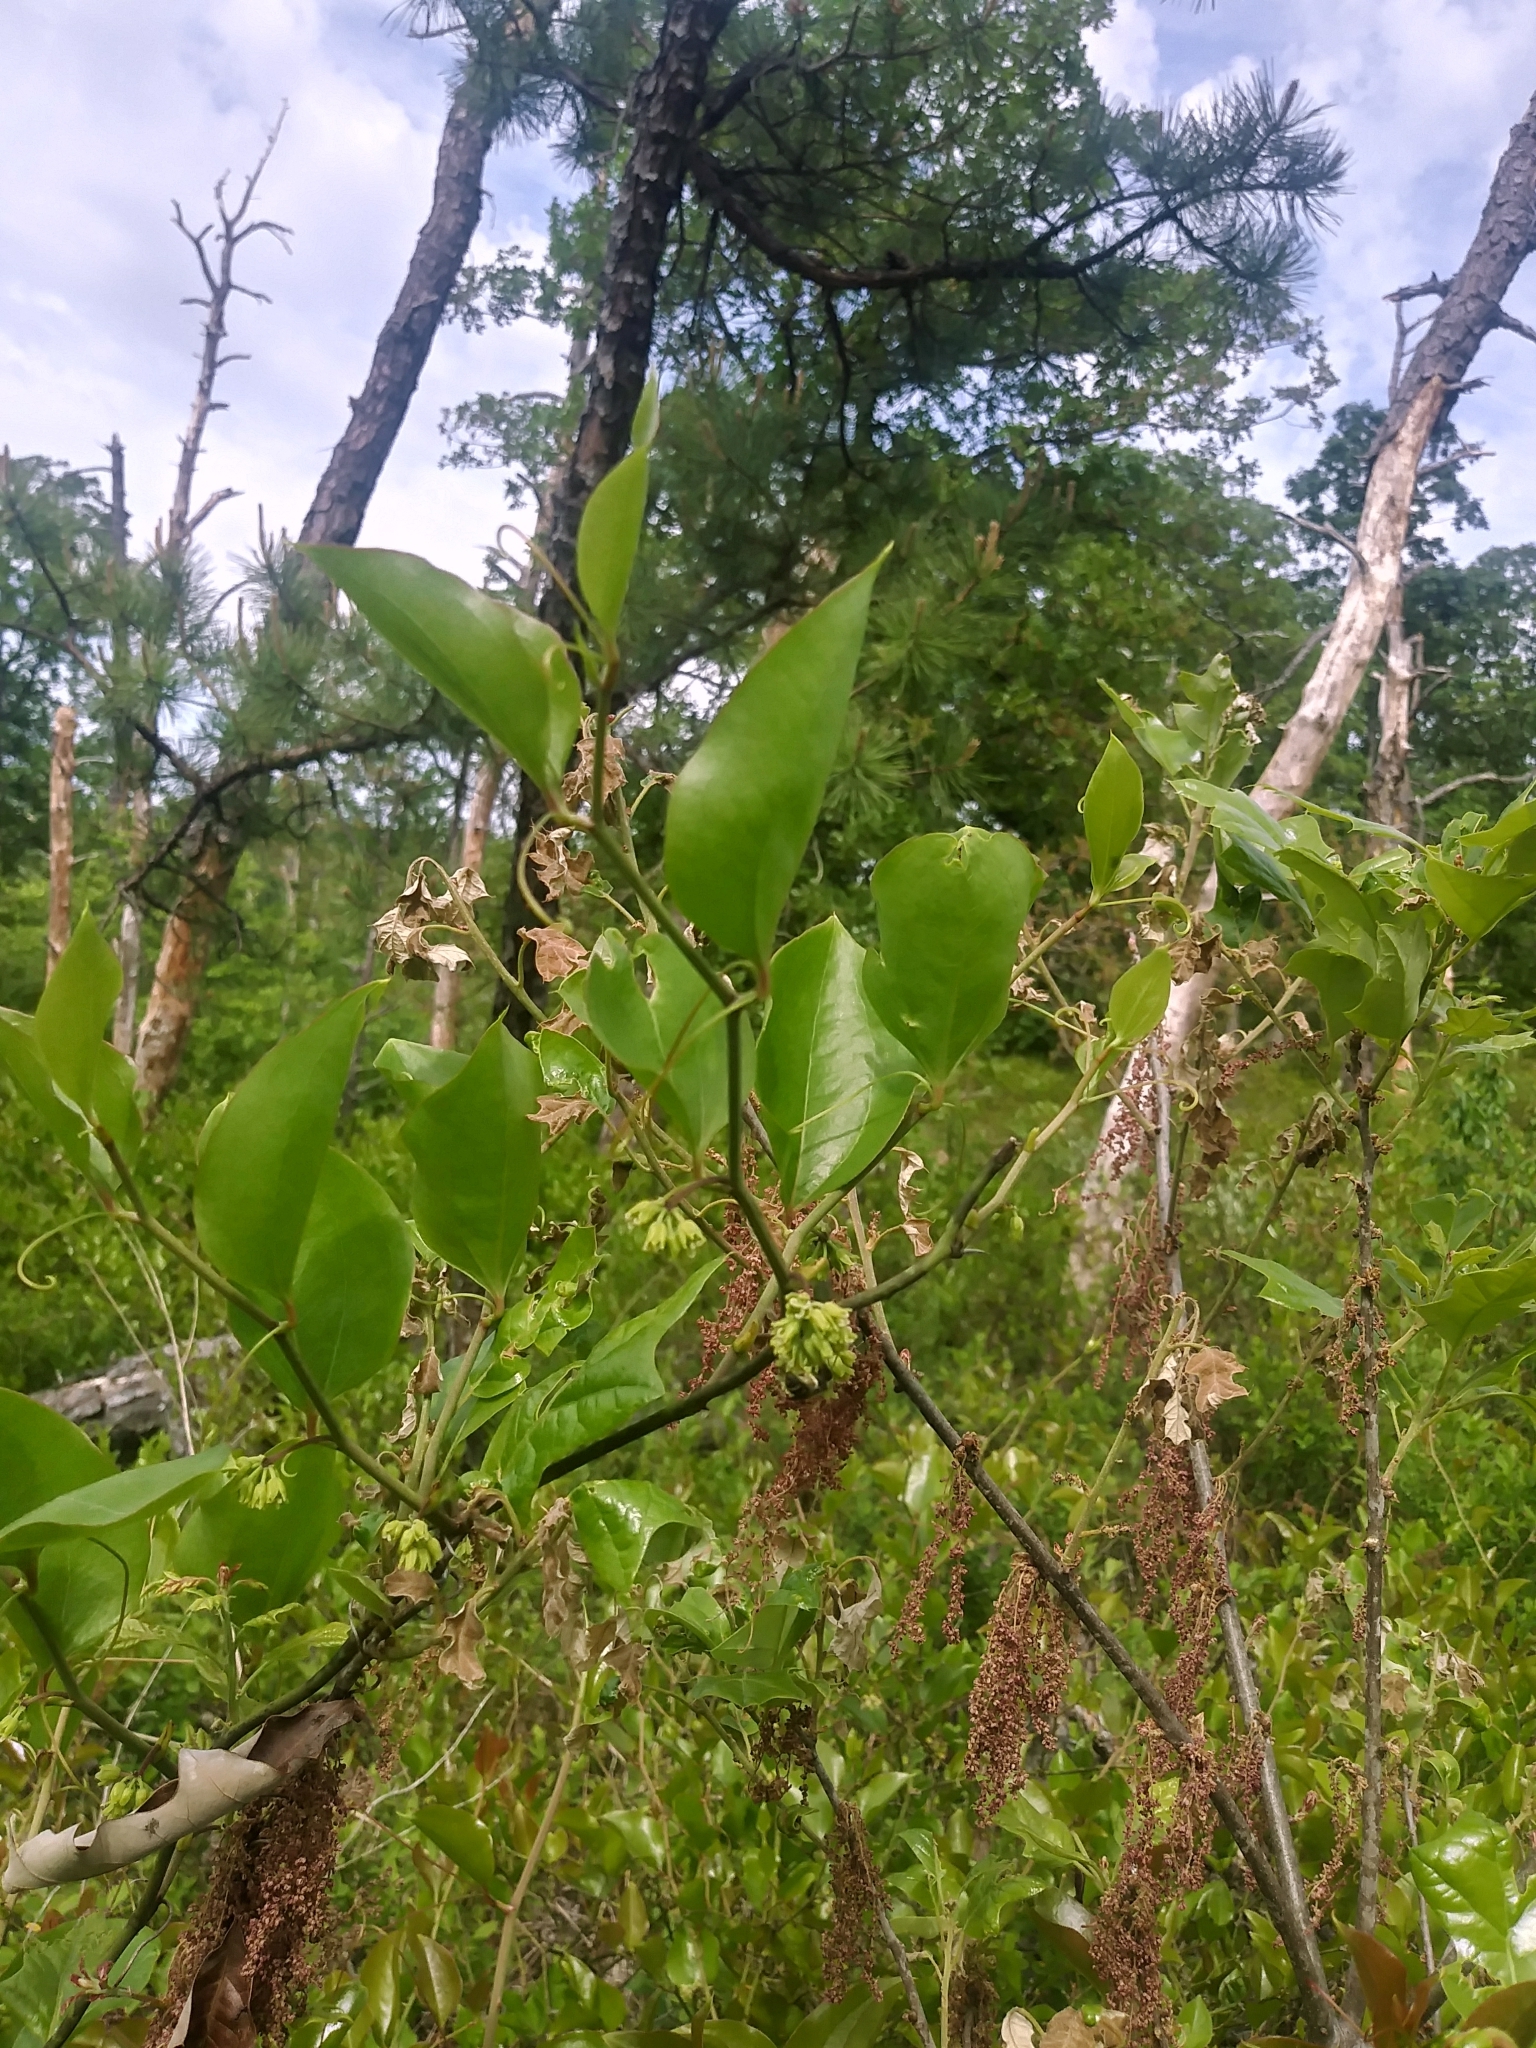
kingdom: Plantae
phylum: Tracheophyta
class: Liliopsida
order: Liliales
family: Smilacaceae
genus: Smilax
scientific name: Smilax rotundifolia
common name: Bullbriar
